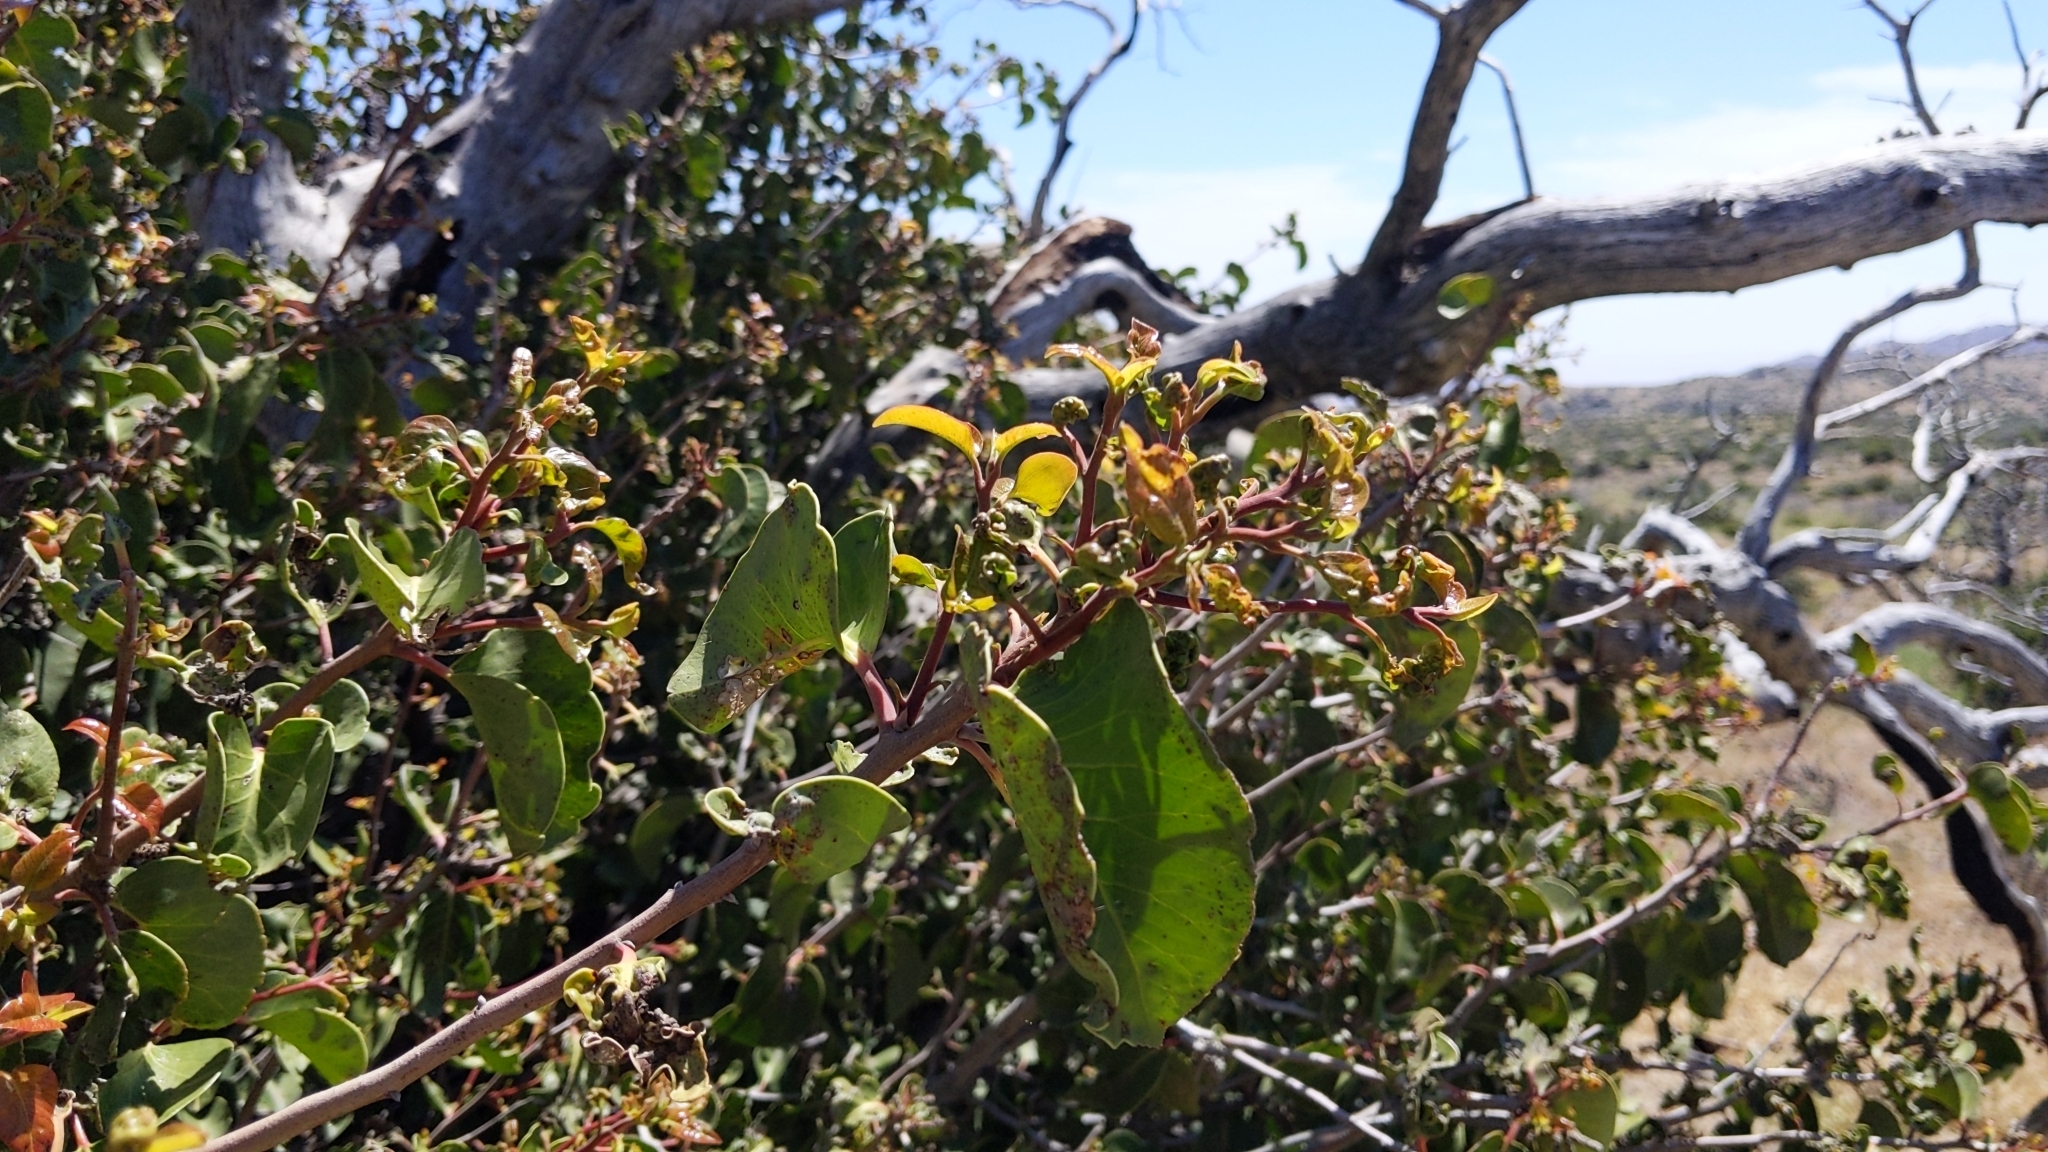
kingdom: Plantae
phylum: Tracheophyta
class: Magnoliopsida
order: Sapindales
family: Anacardiaceae
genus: Rhus
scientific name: Rhus ovata
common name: Sugar sumac
